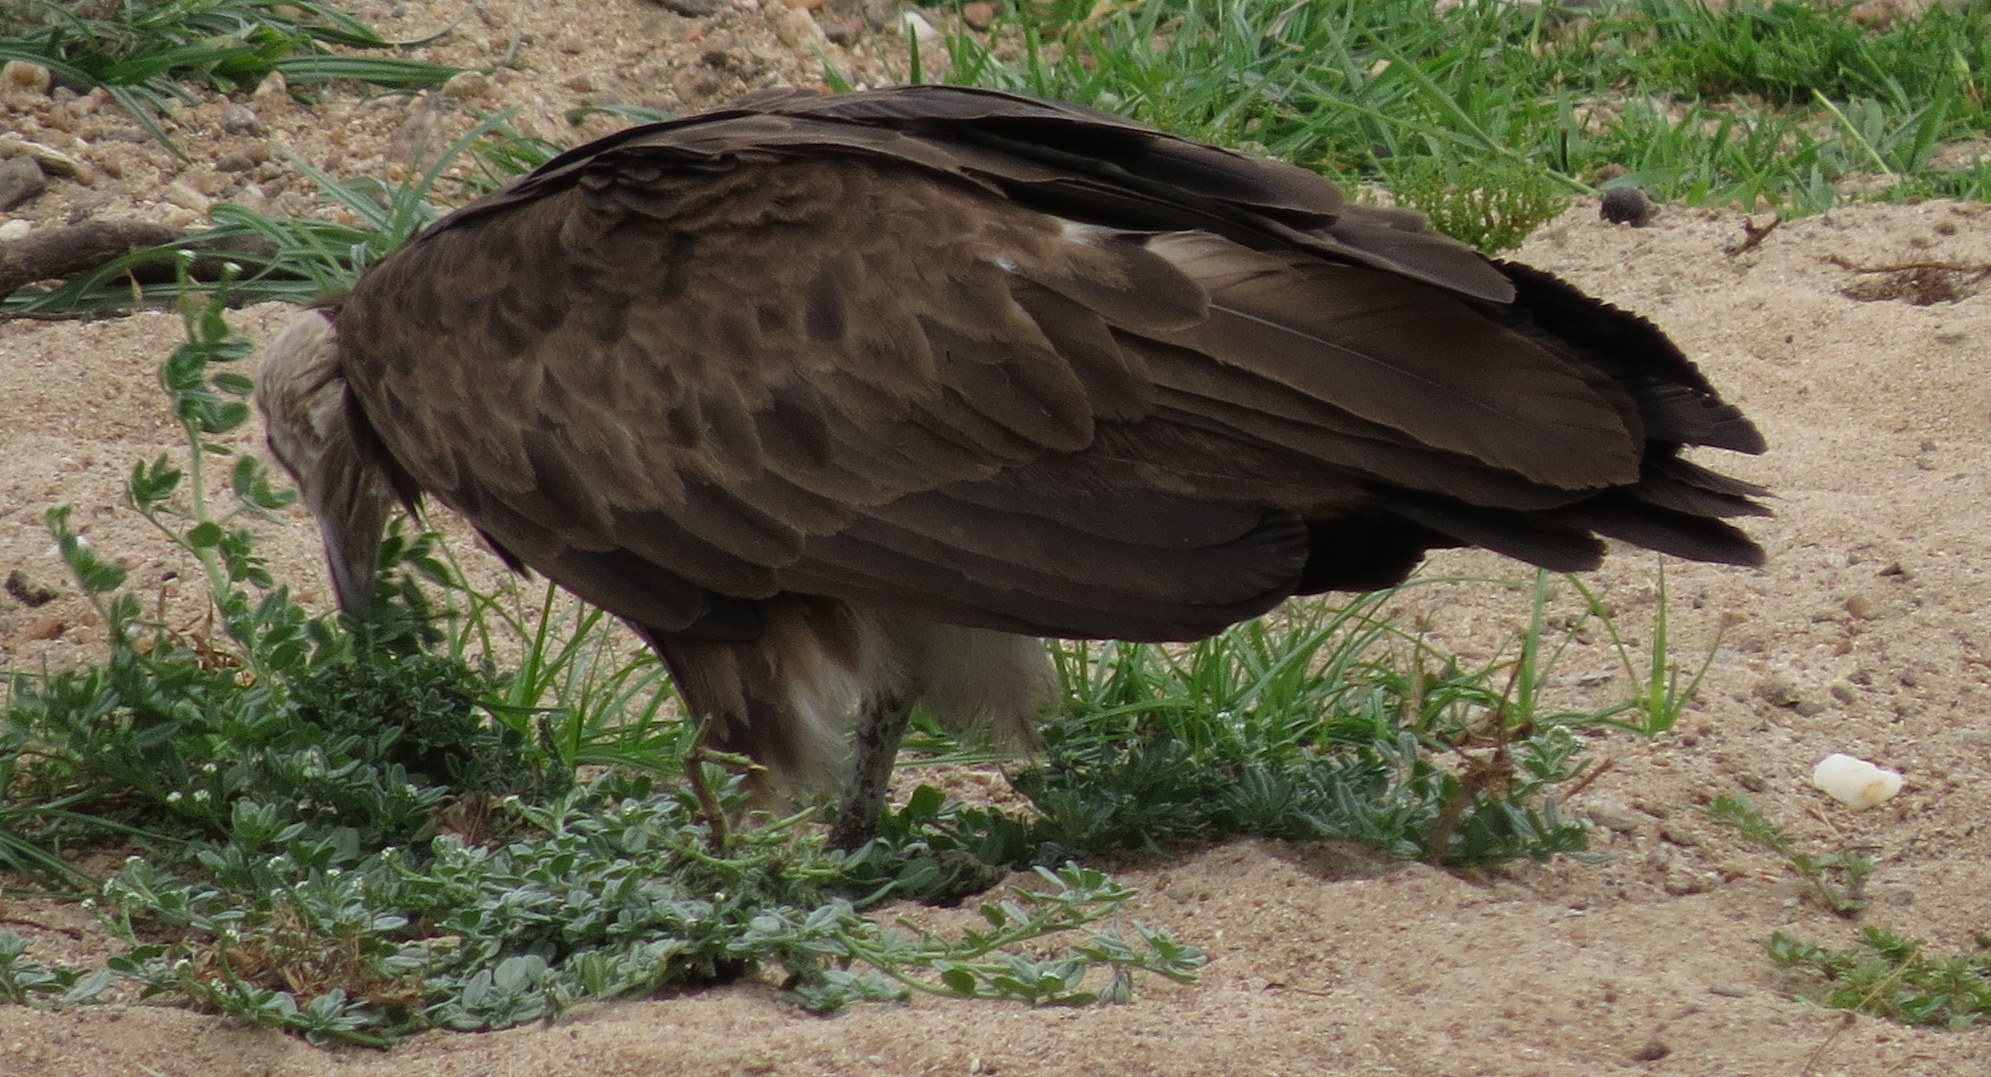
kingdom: Animalia
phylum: Chordata
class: Aves
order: Accipitriformes
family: Accipitridae
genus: Necrosyrtes
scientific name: Necrosyrtes monachus
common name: Hooded vulture
